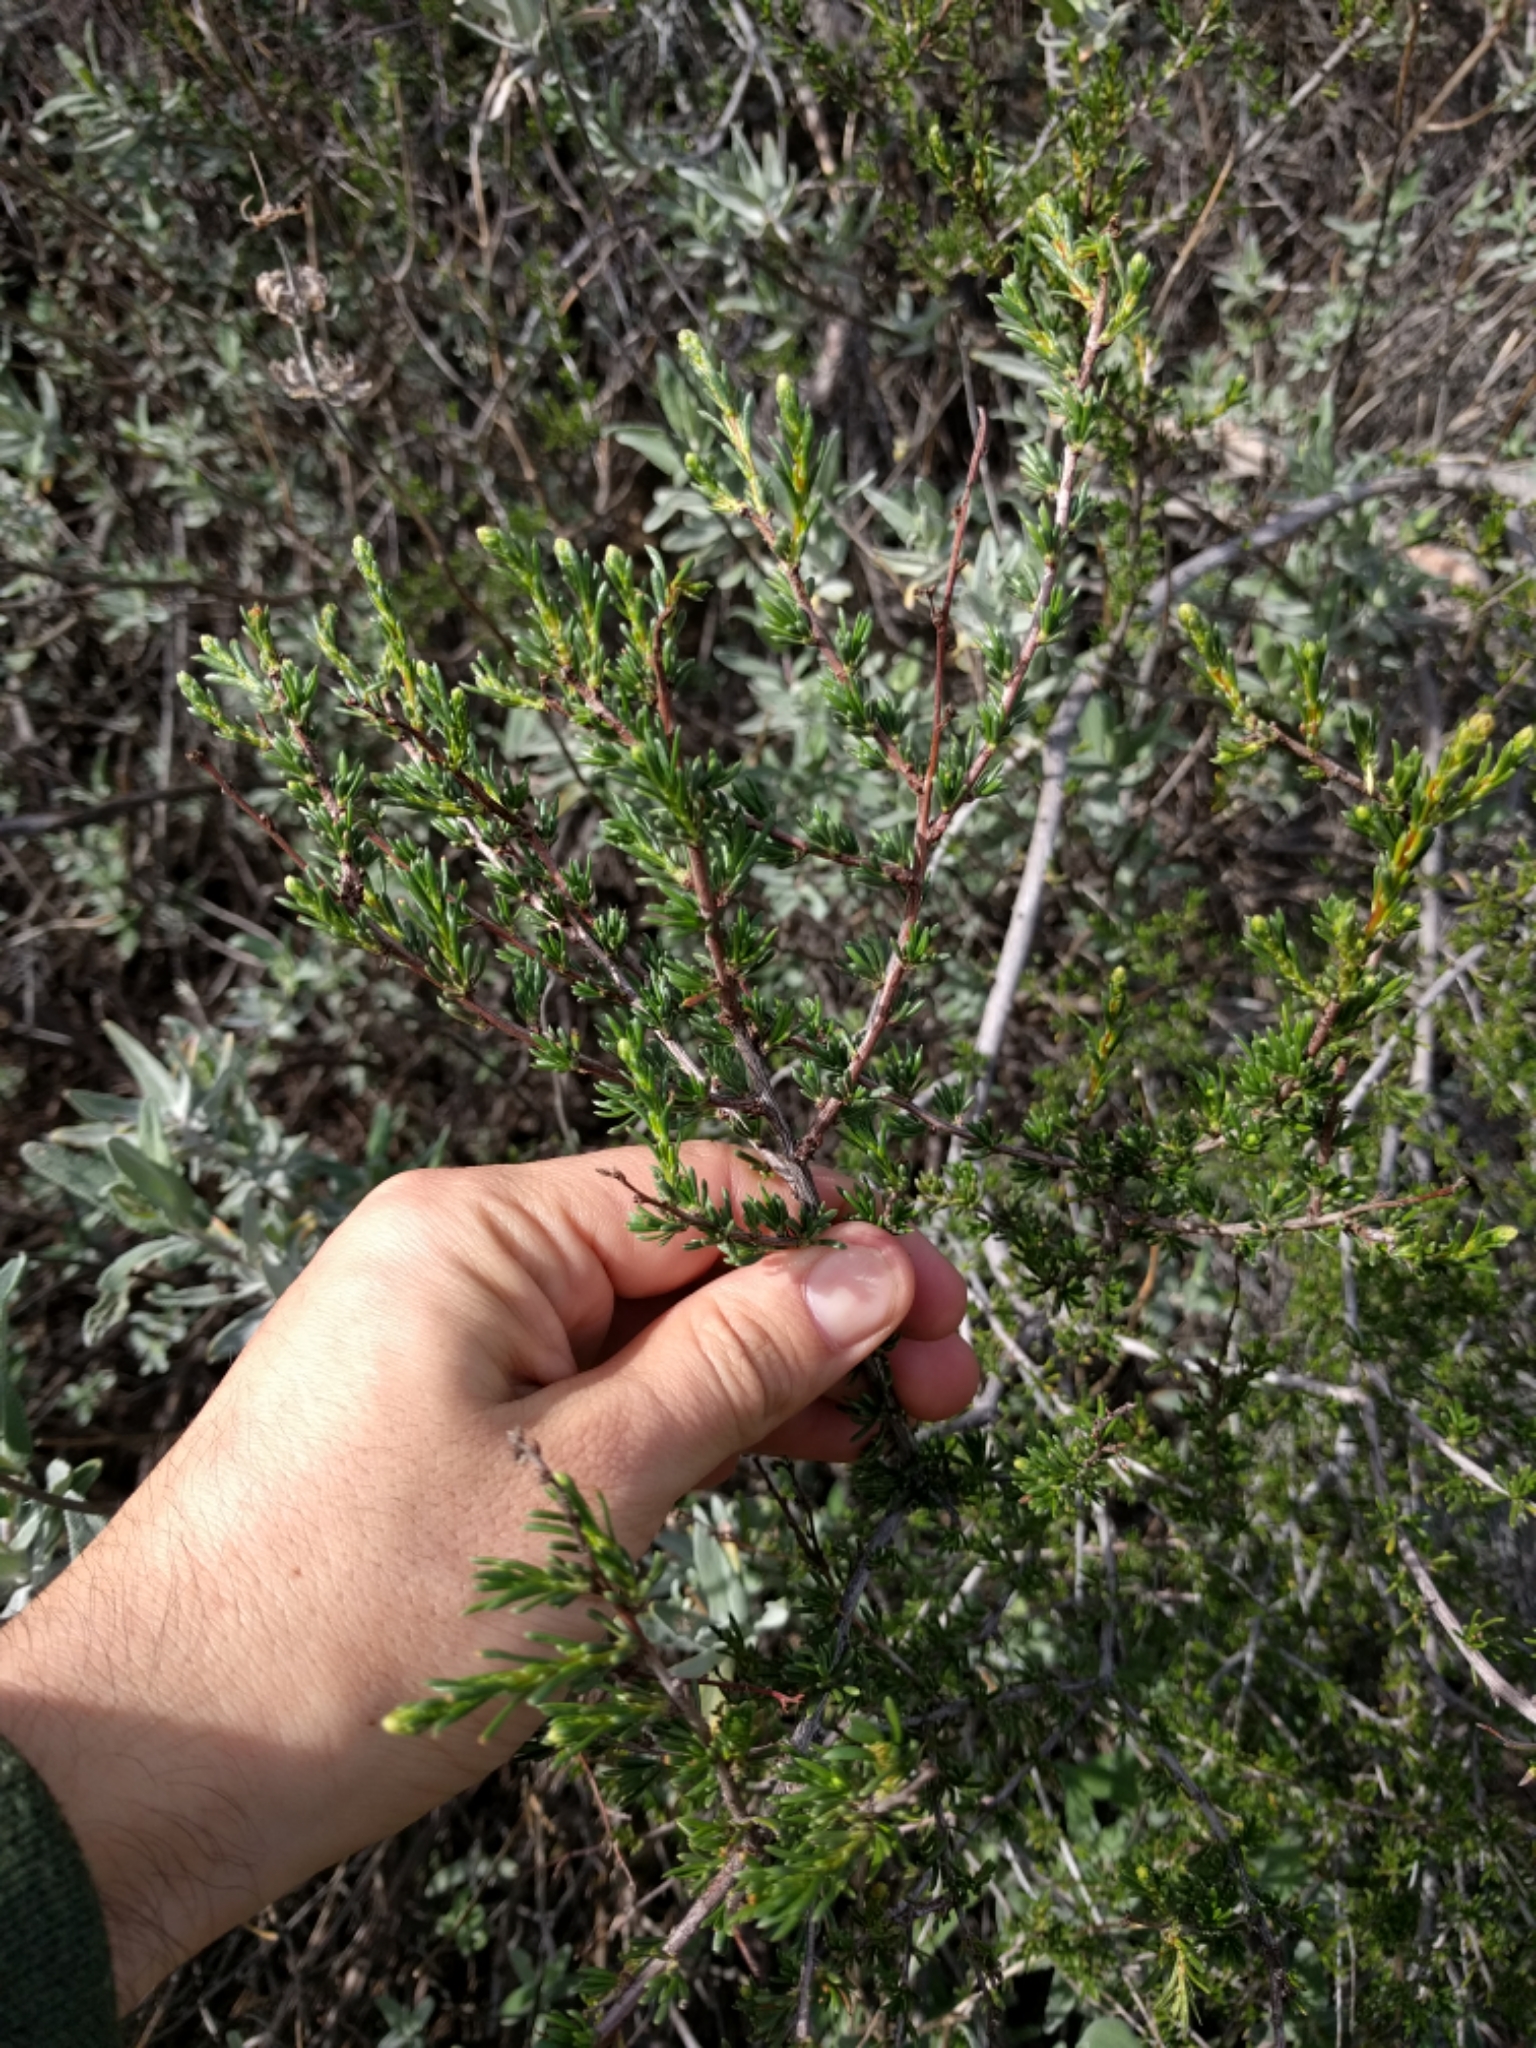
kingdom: Plantae
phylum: Tracheophyta
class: Magnoliopsida
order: Rosales
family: Rosaceae
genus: Adenostoma
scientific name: Adenostoma fasciculatum
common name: Chamise
